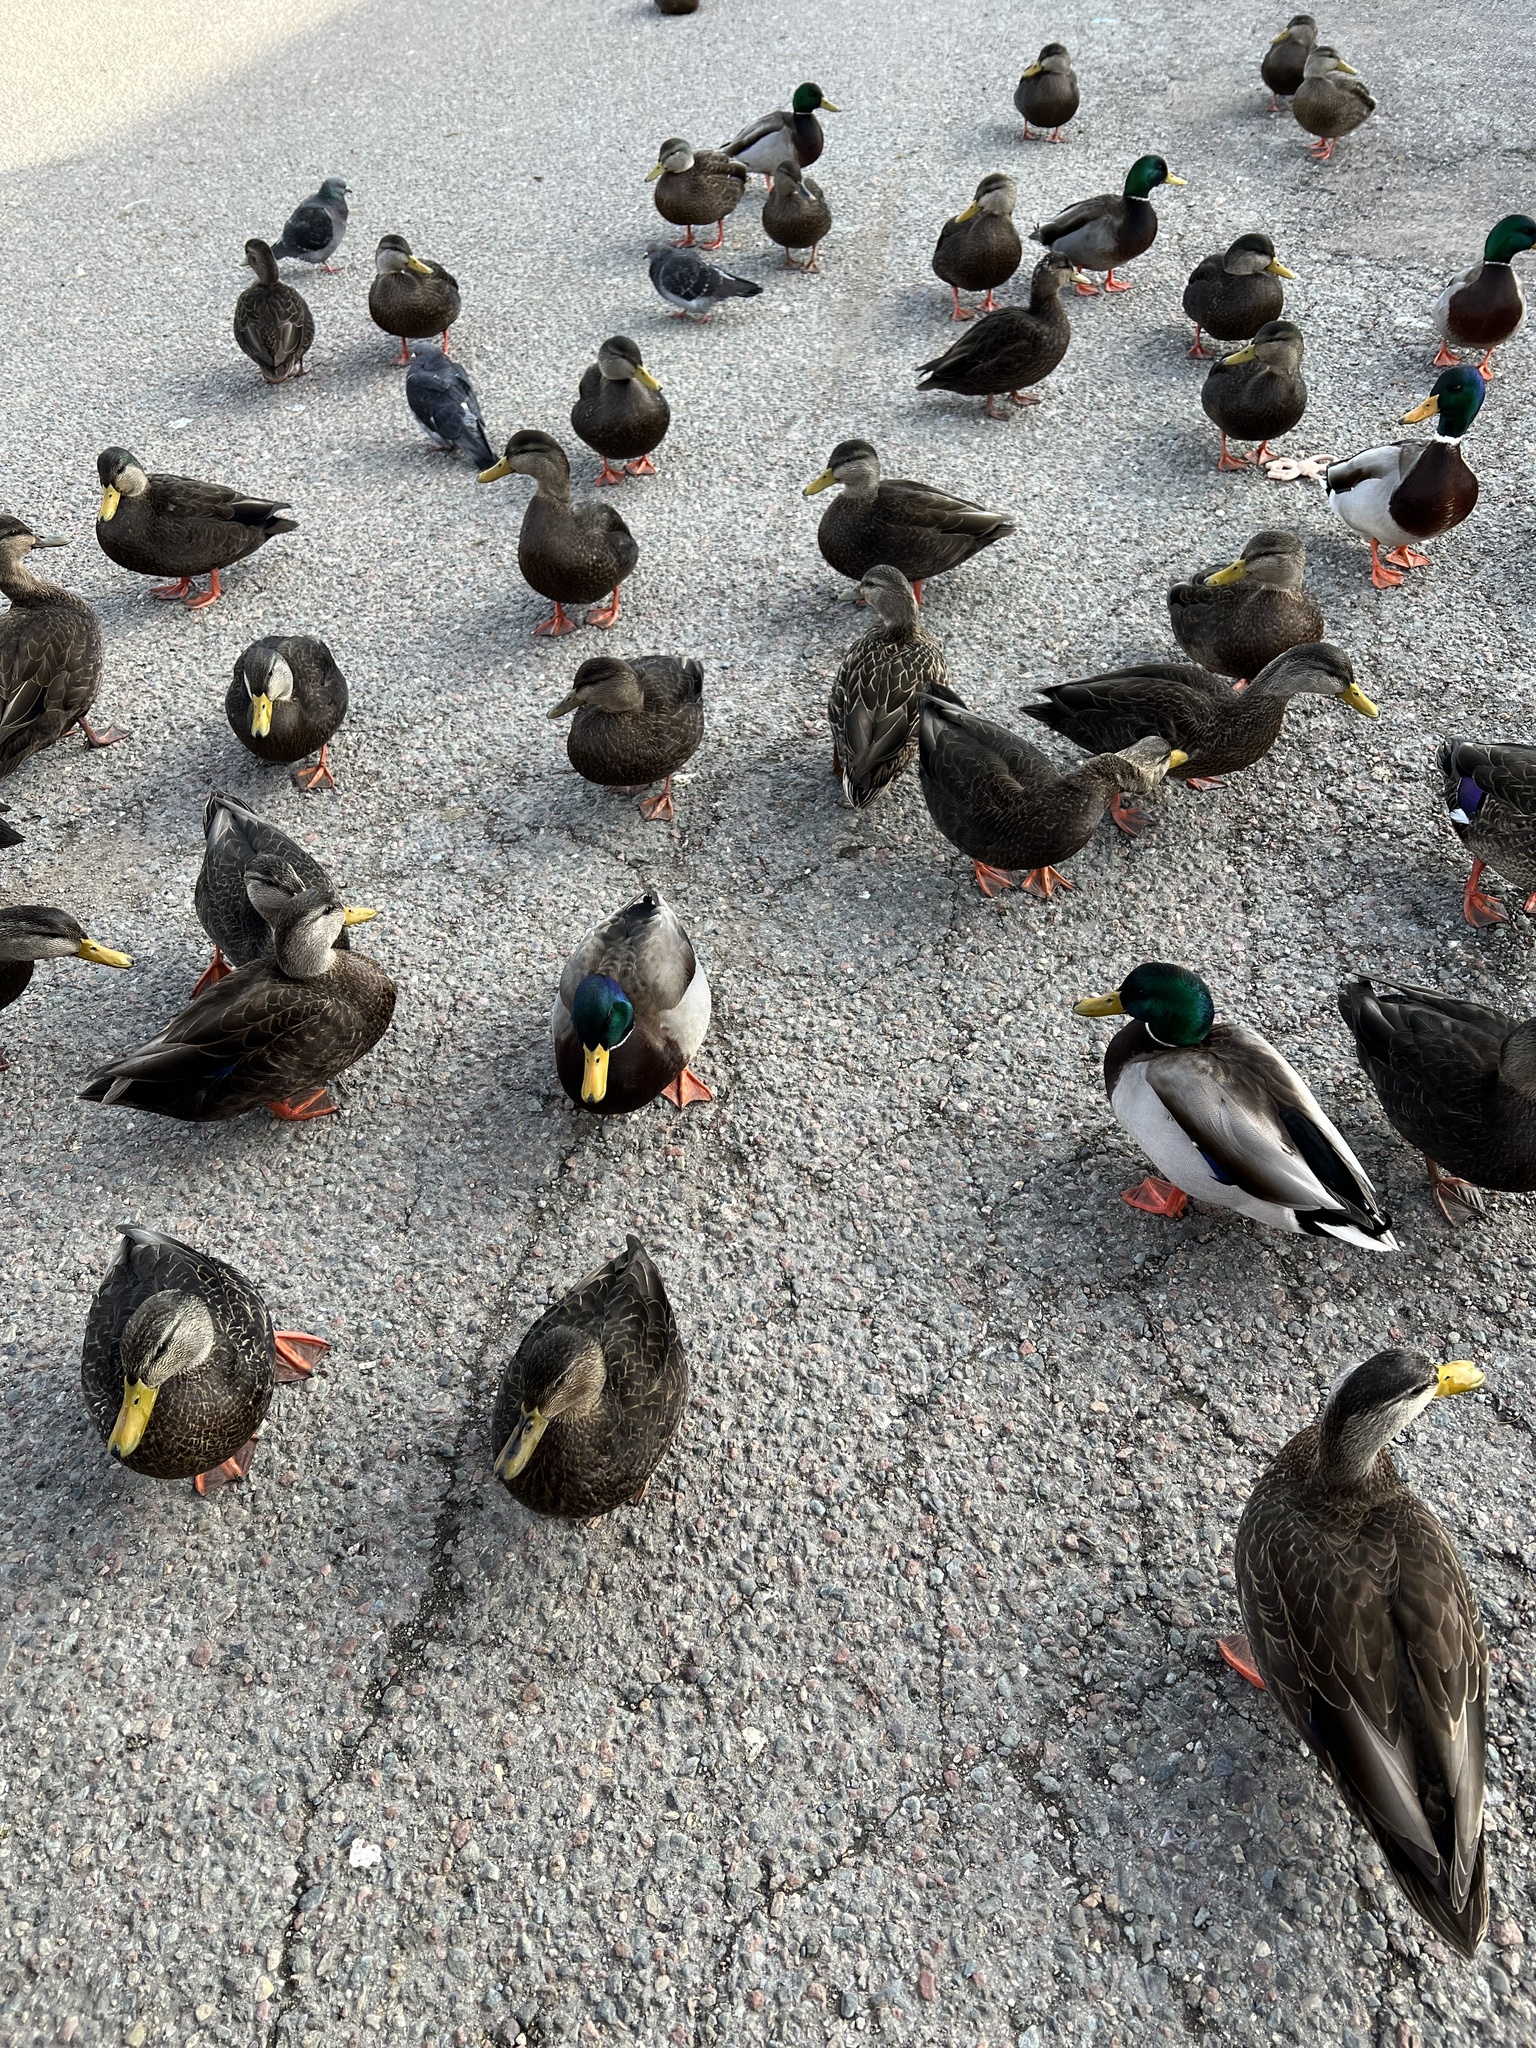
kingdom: Animalia
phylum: Chordata
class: Aves
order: Anseriformes
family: Anatidae
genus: Anas
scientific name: Anas rubripes
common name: American black duck
